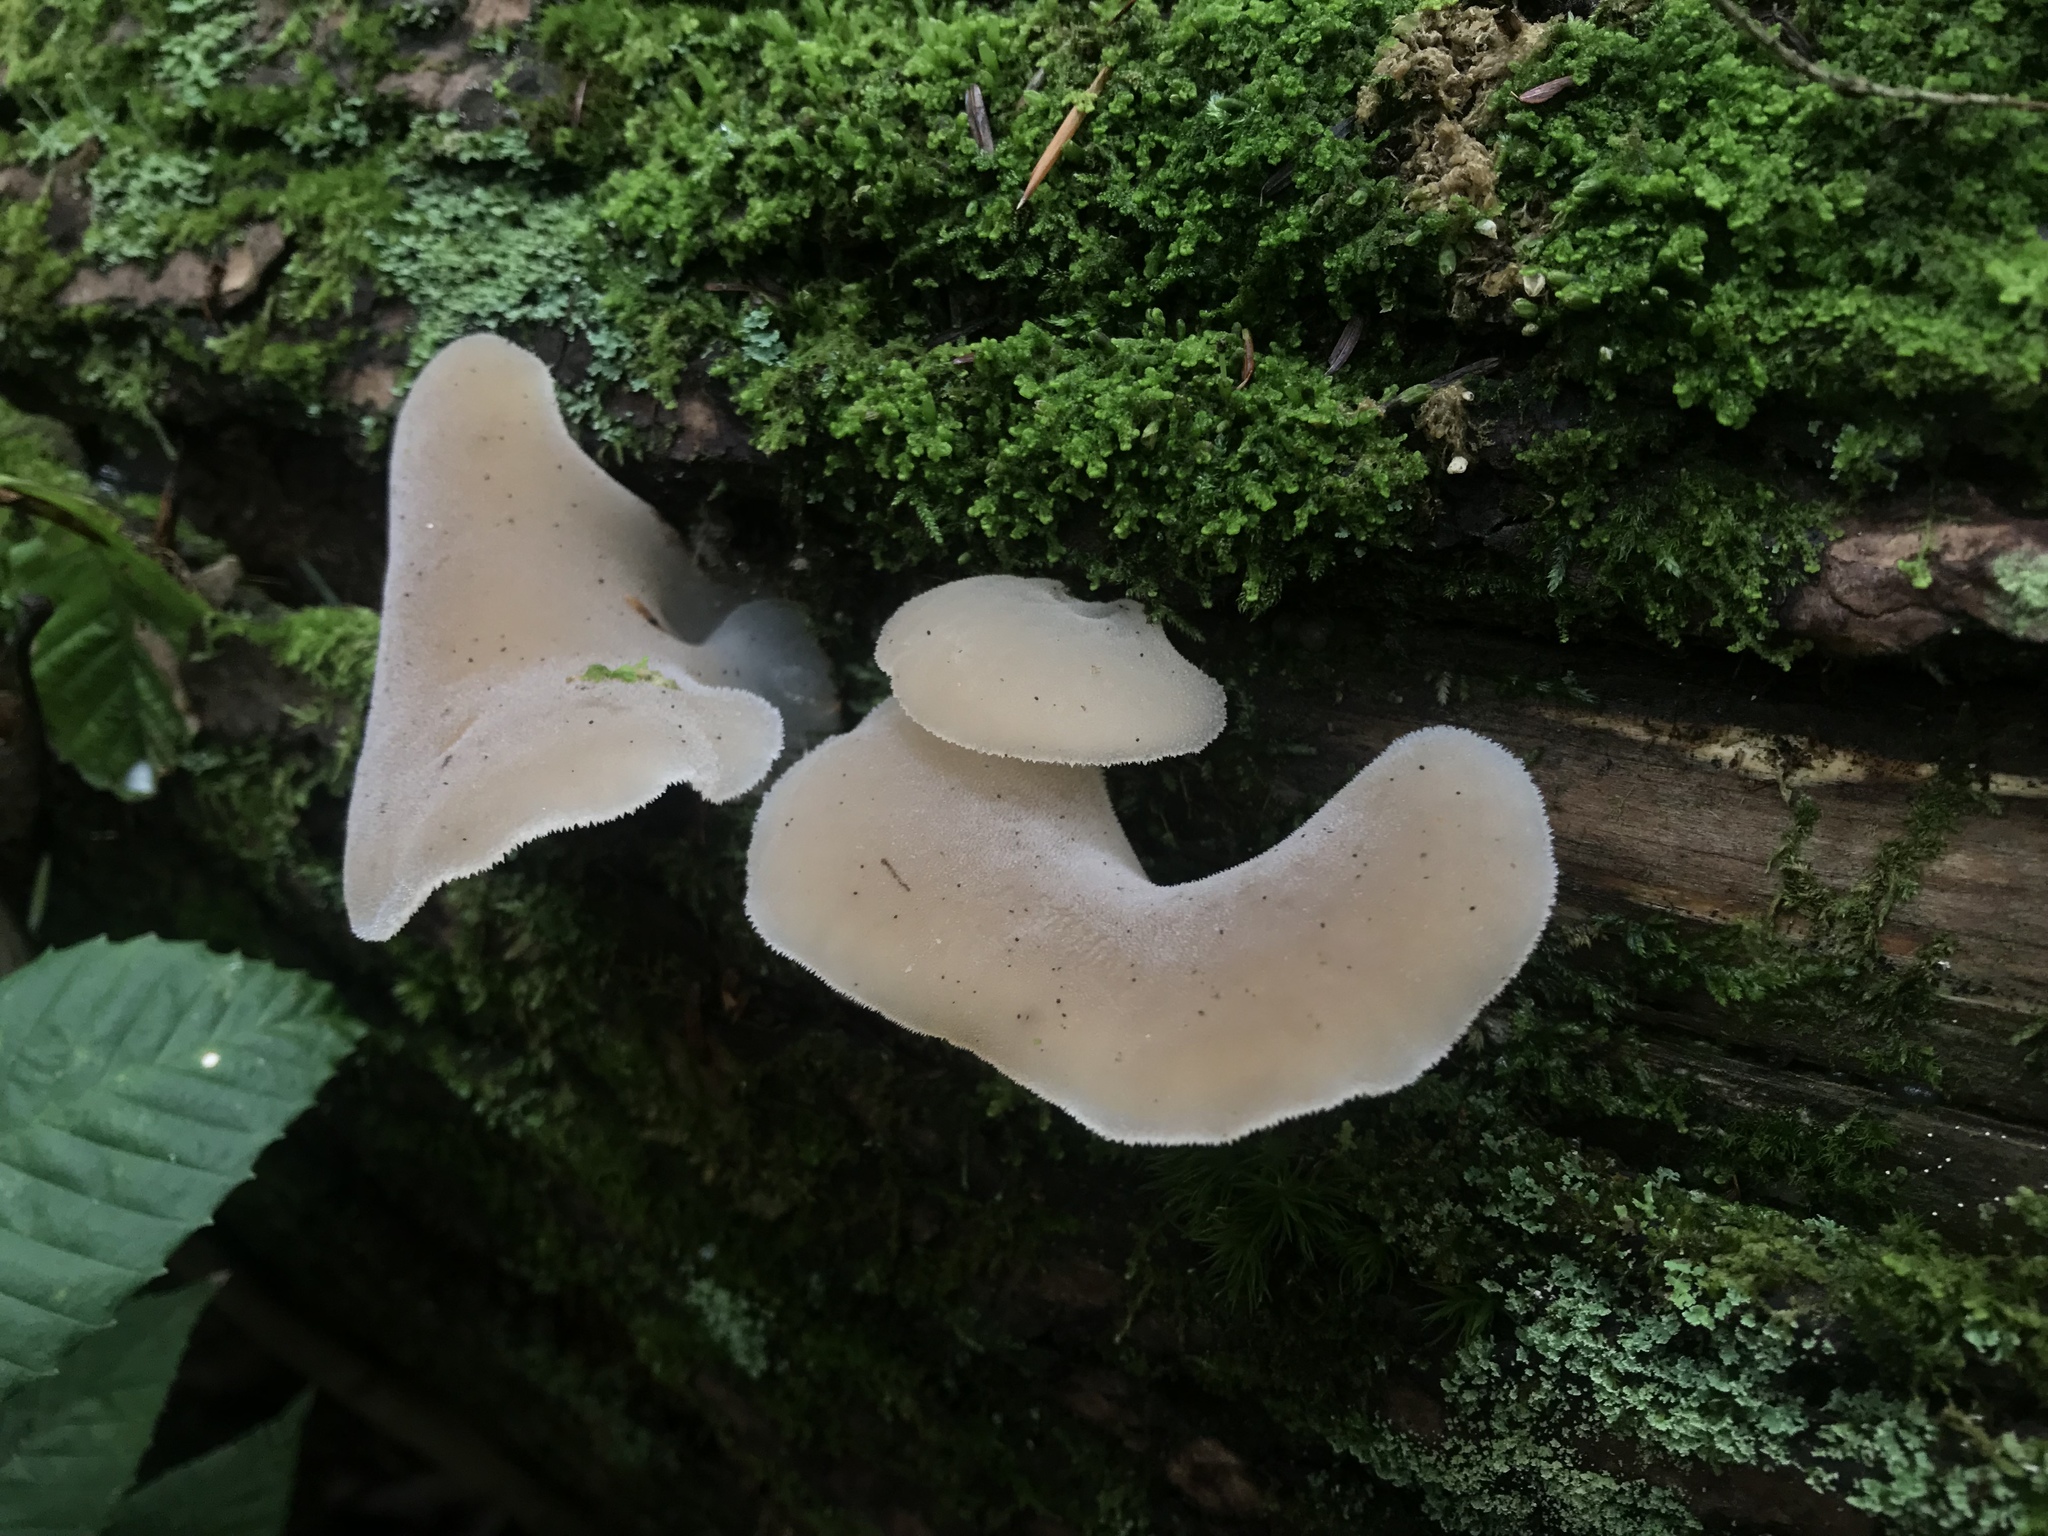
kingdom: Fungi
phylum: Basidiomycota
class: Agaricomycetes
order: Auriculariales
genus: Pseudohydnum
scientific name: Pseudohydnum gelatinosum
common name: Jelly tongue
